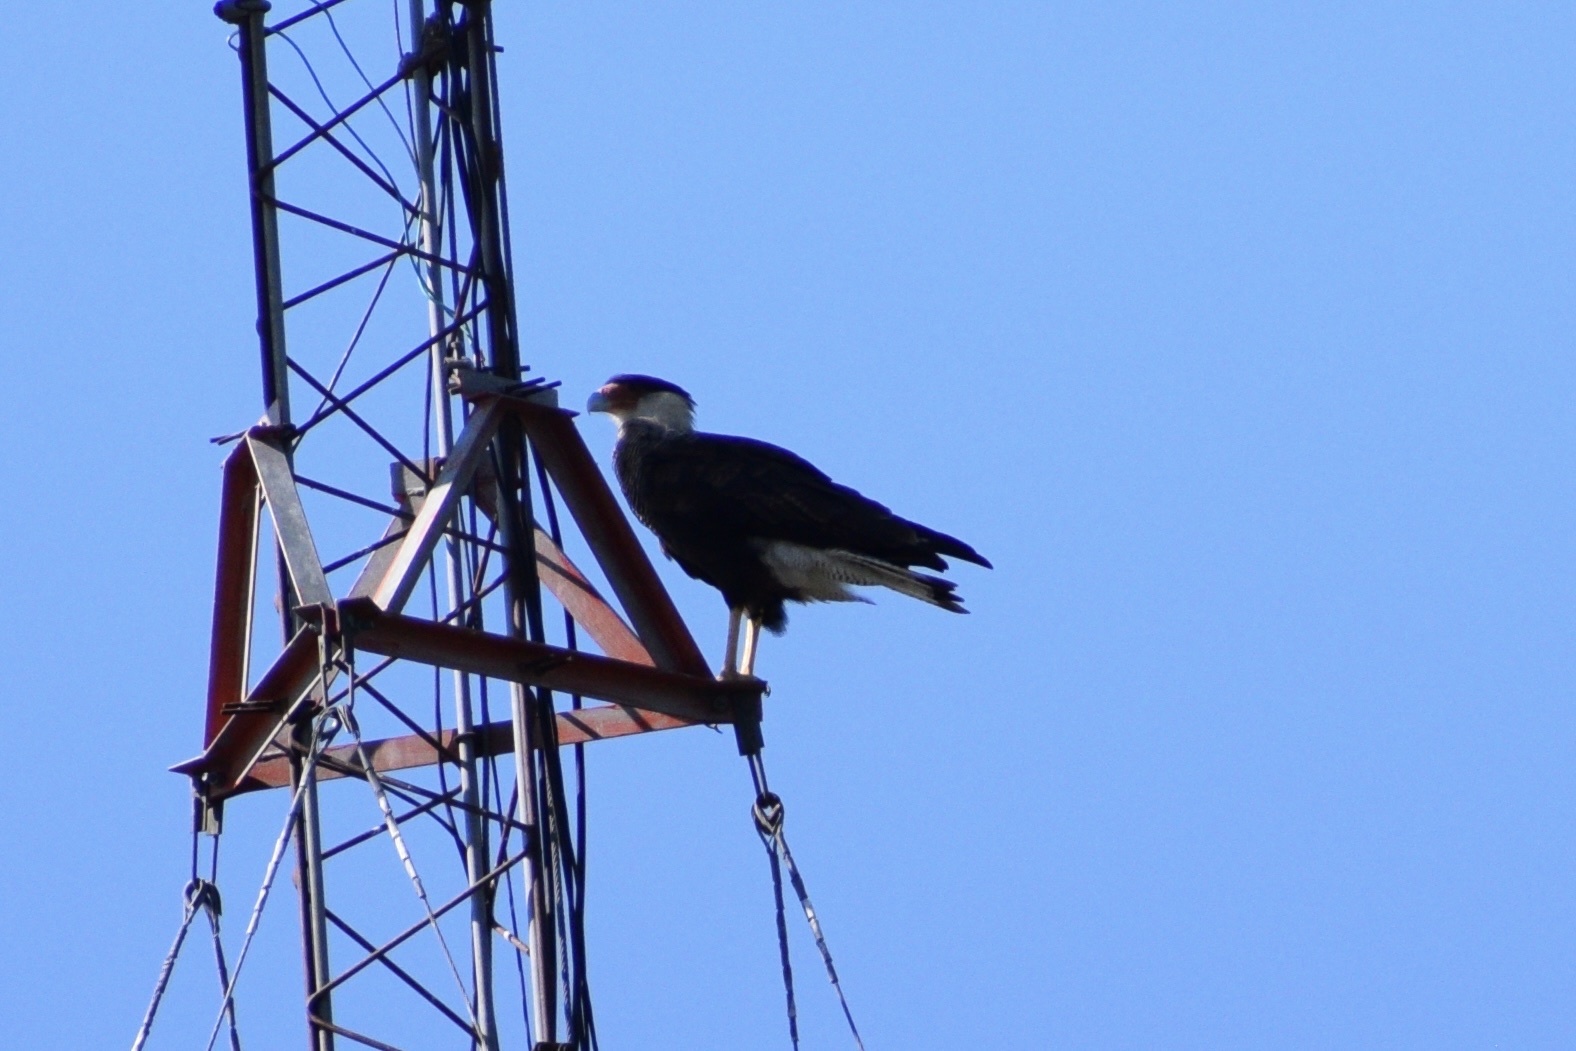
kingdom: Animalia
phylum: Chordata
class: Aves
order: Falconiformes
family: Falconidae
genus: Caracara
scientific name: Caracara plancus
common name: Southern caracara
